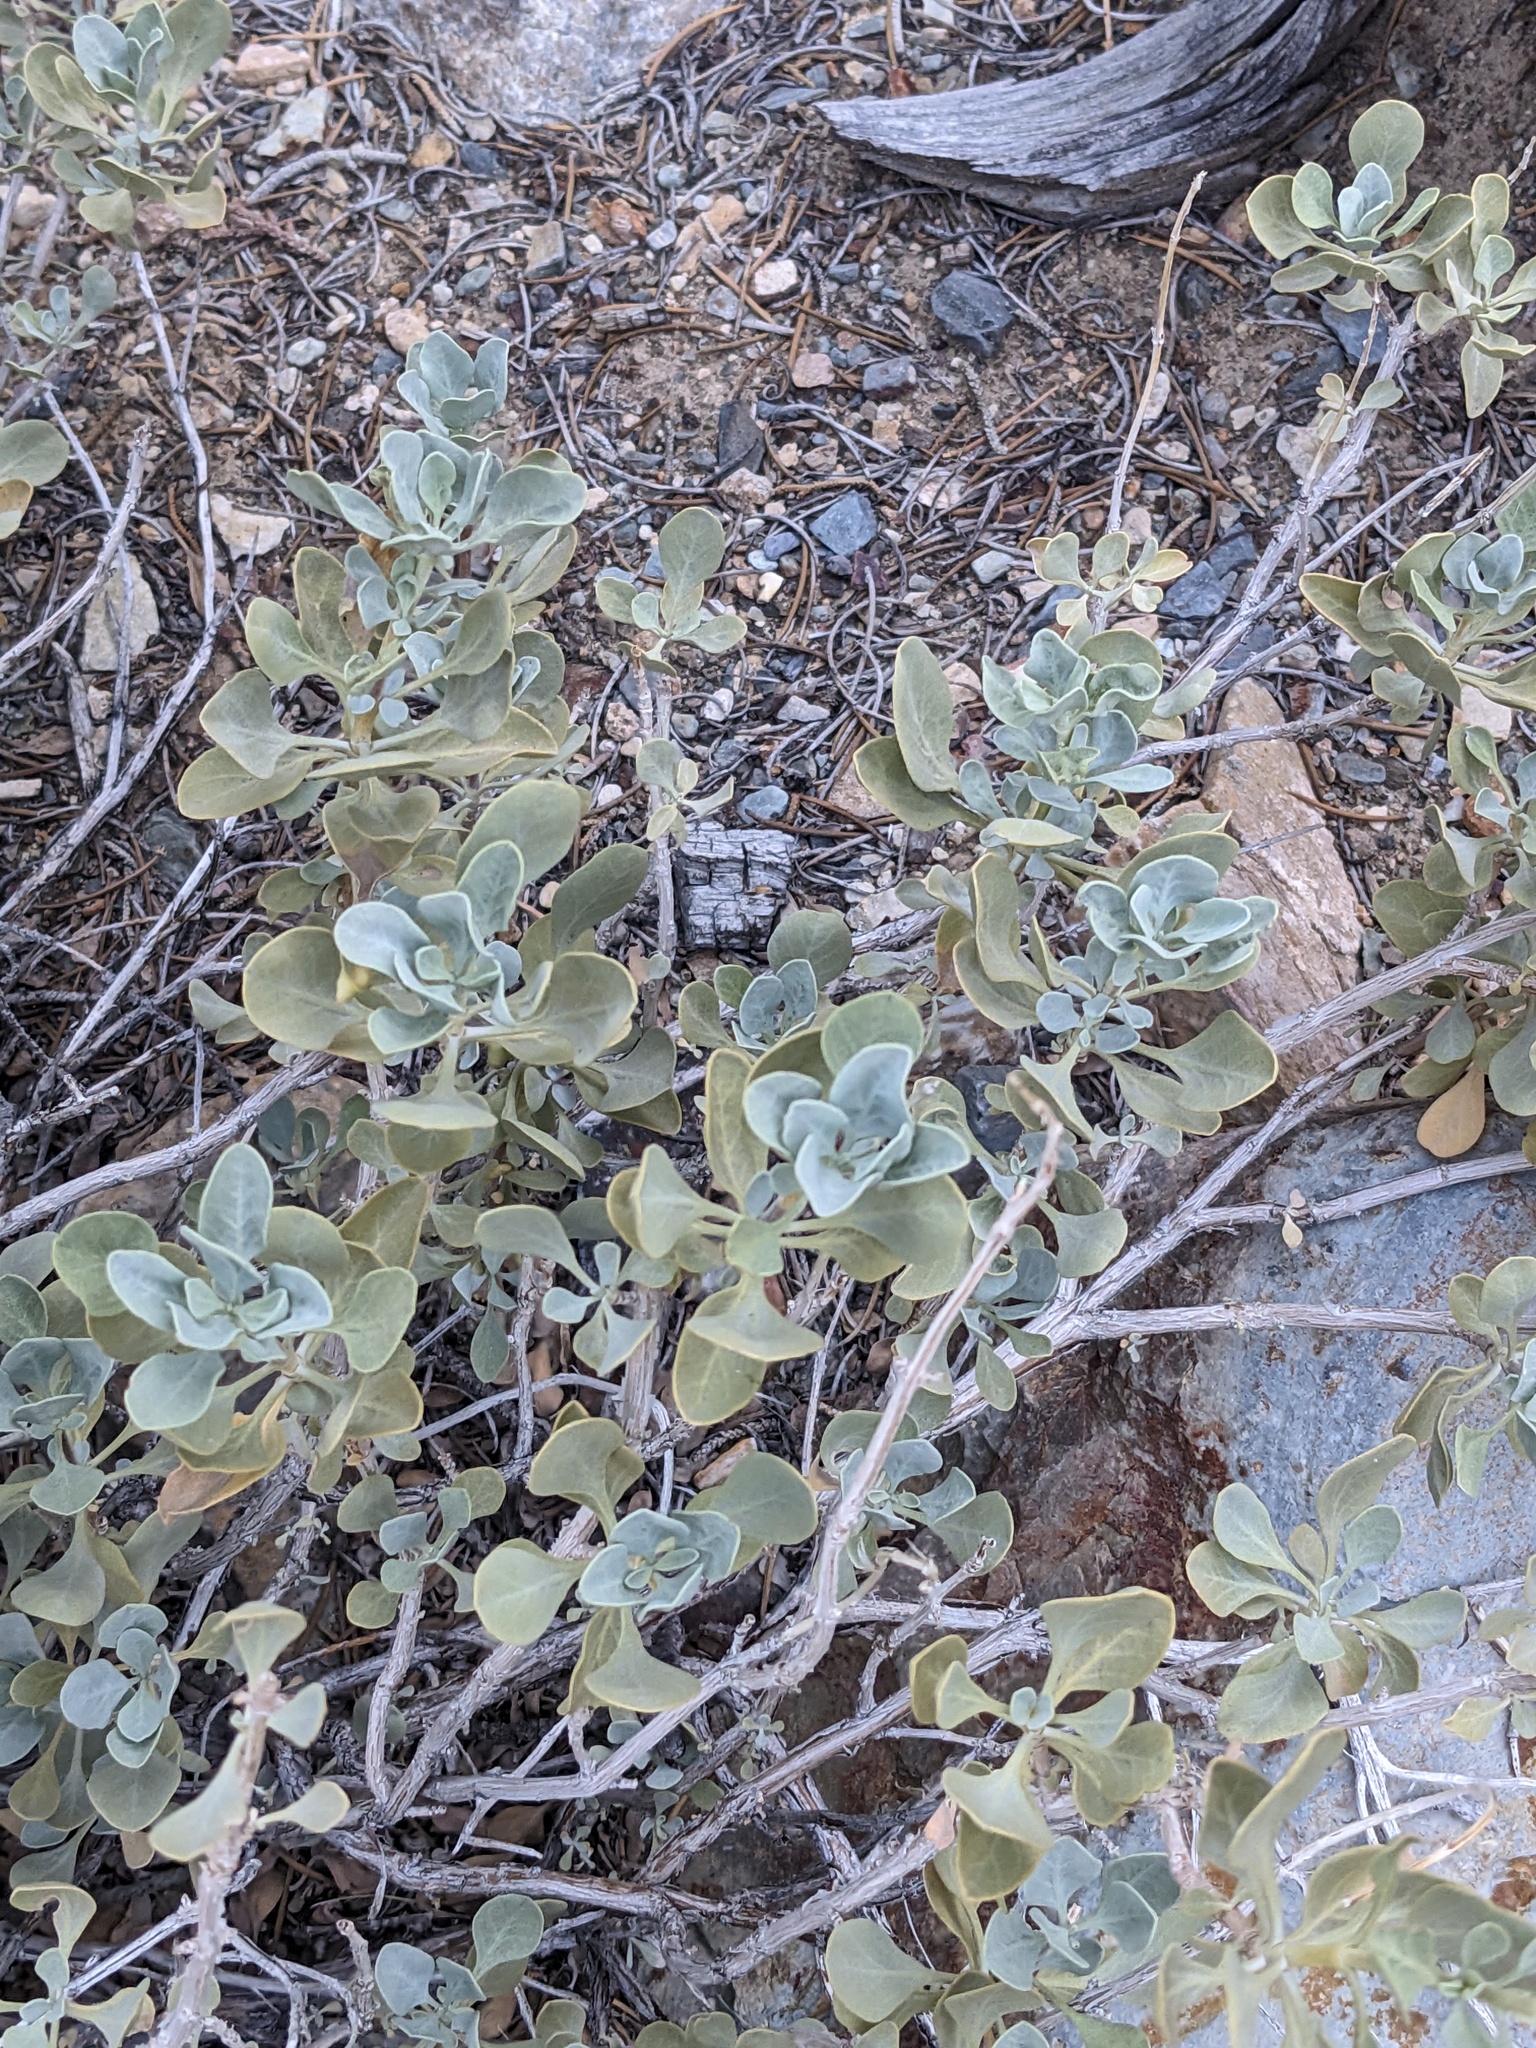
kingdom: Plantae
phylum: Tracheophyta
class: Magnoliopsida
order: Lamiales
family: Lamiaceae
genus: Salvia
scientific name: Salvia pachyphylla
